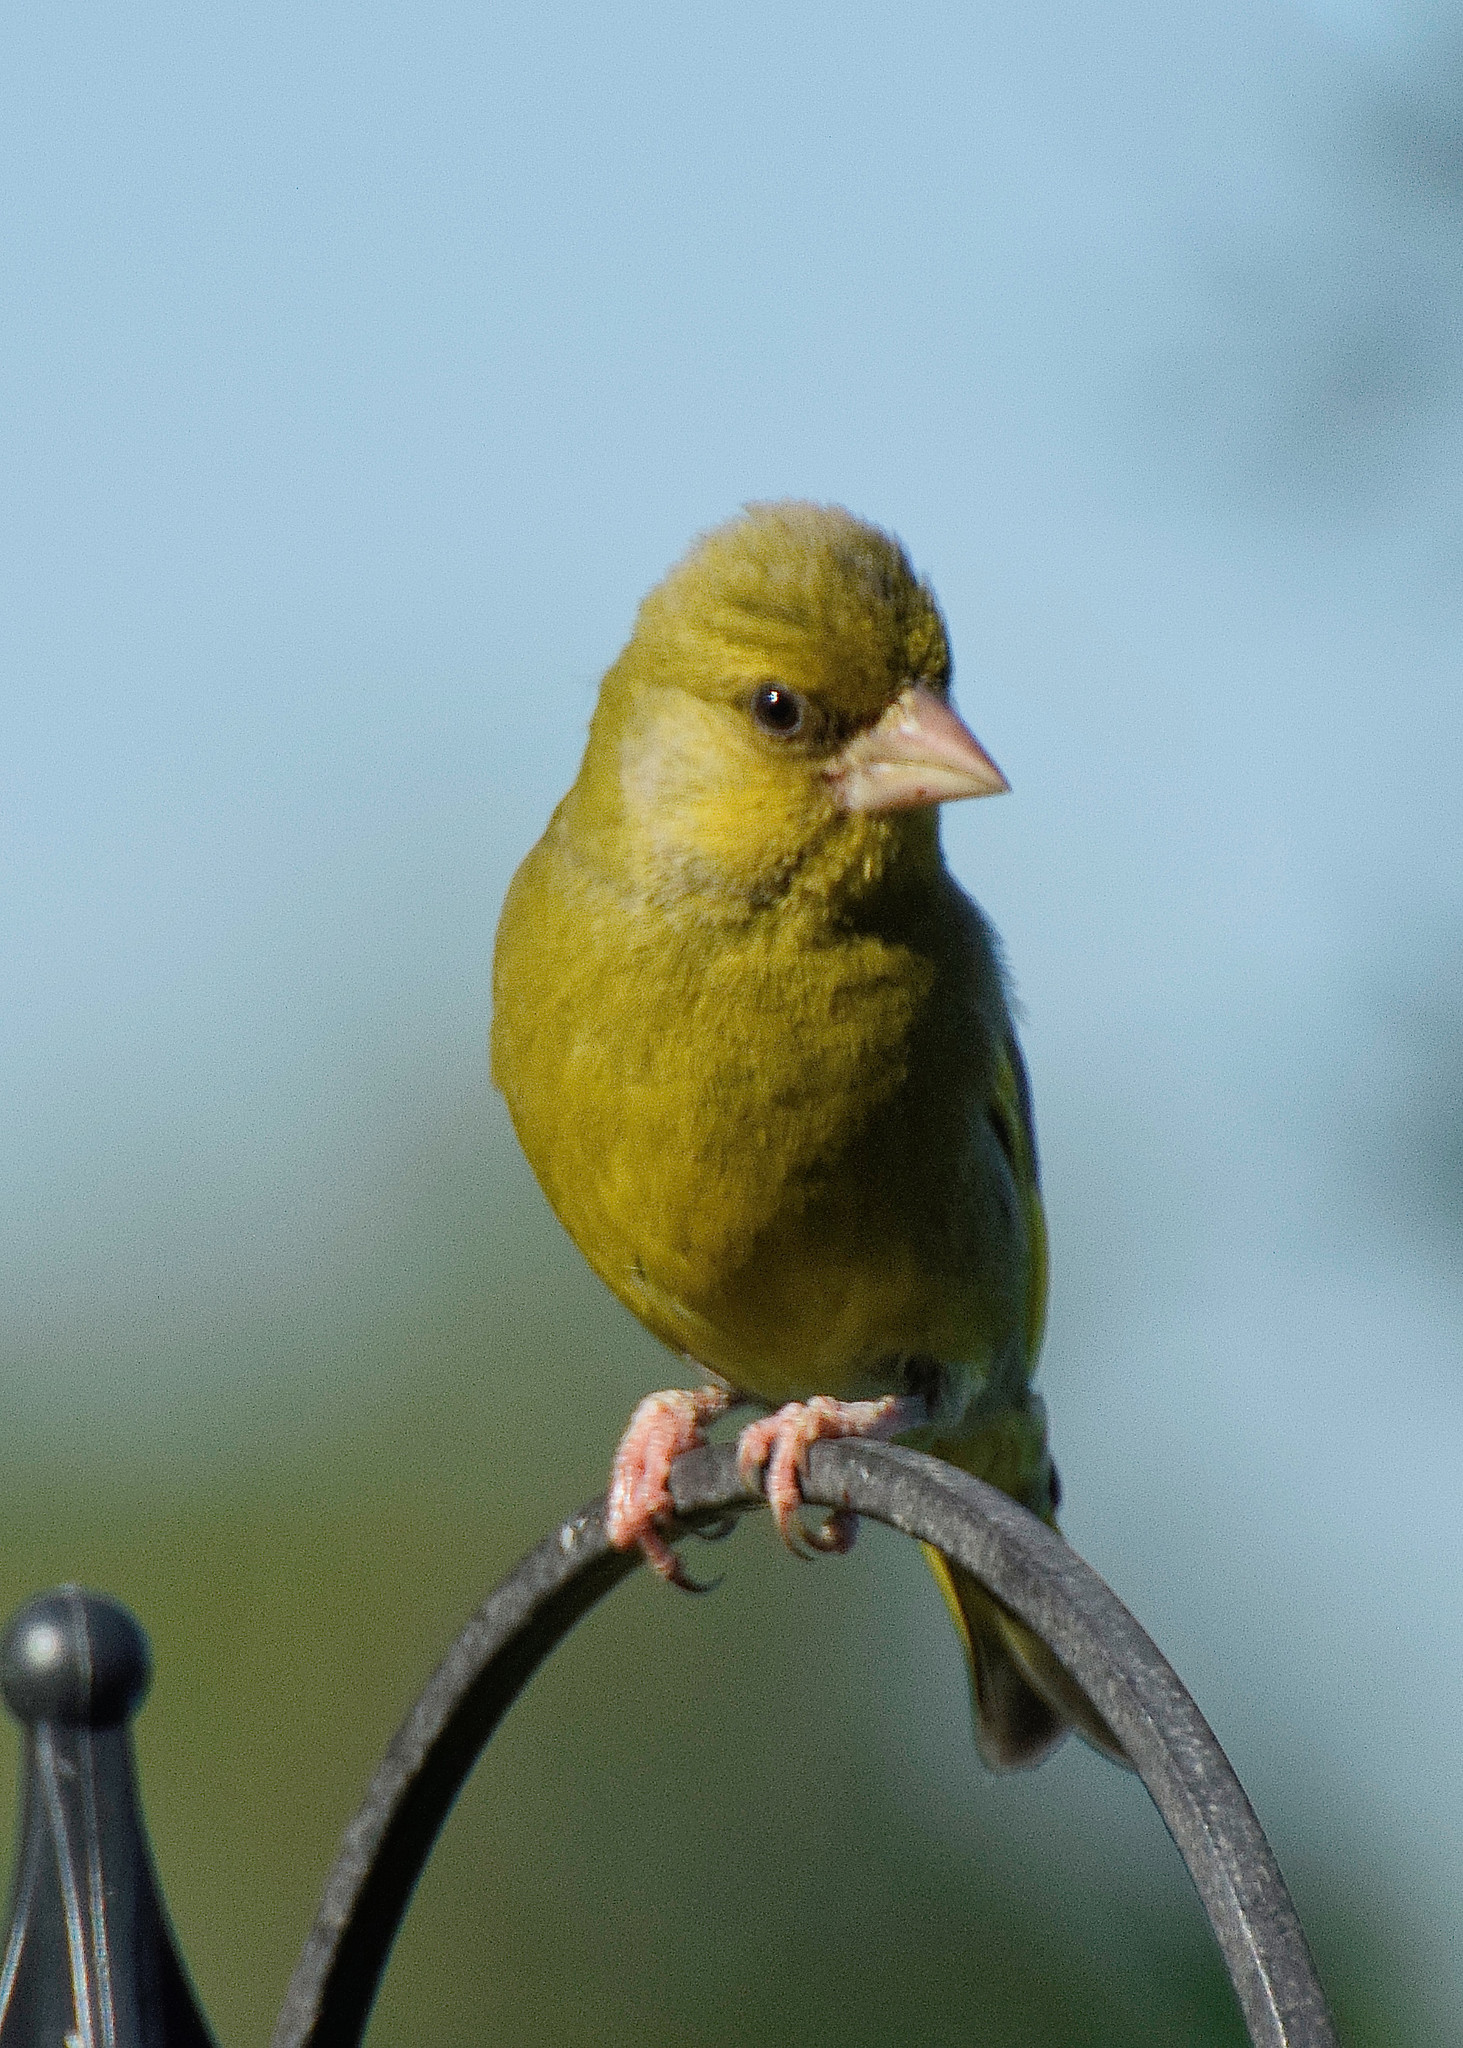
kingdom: Plantae
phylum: Tracheophyta
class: Liliopsida
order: Poales
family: Poaceae
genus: Chloris
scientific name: Chloris chloris
